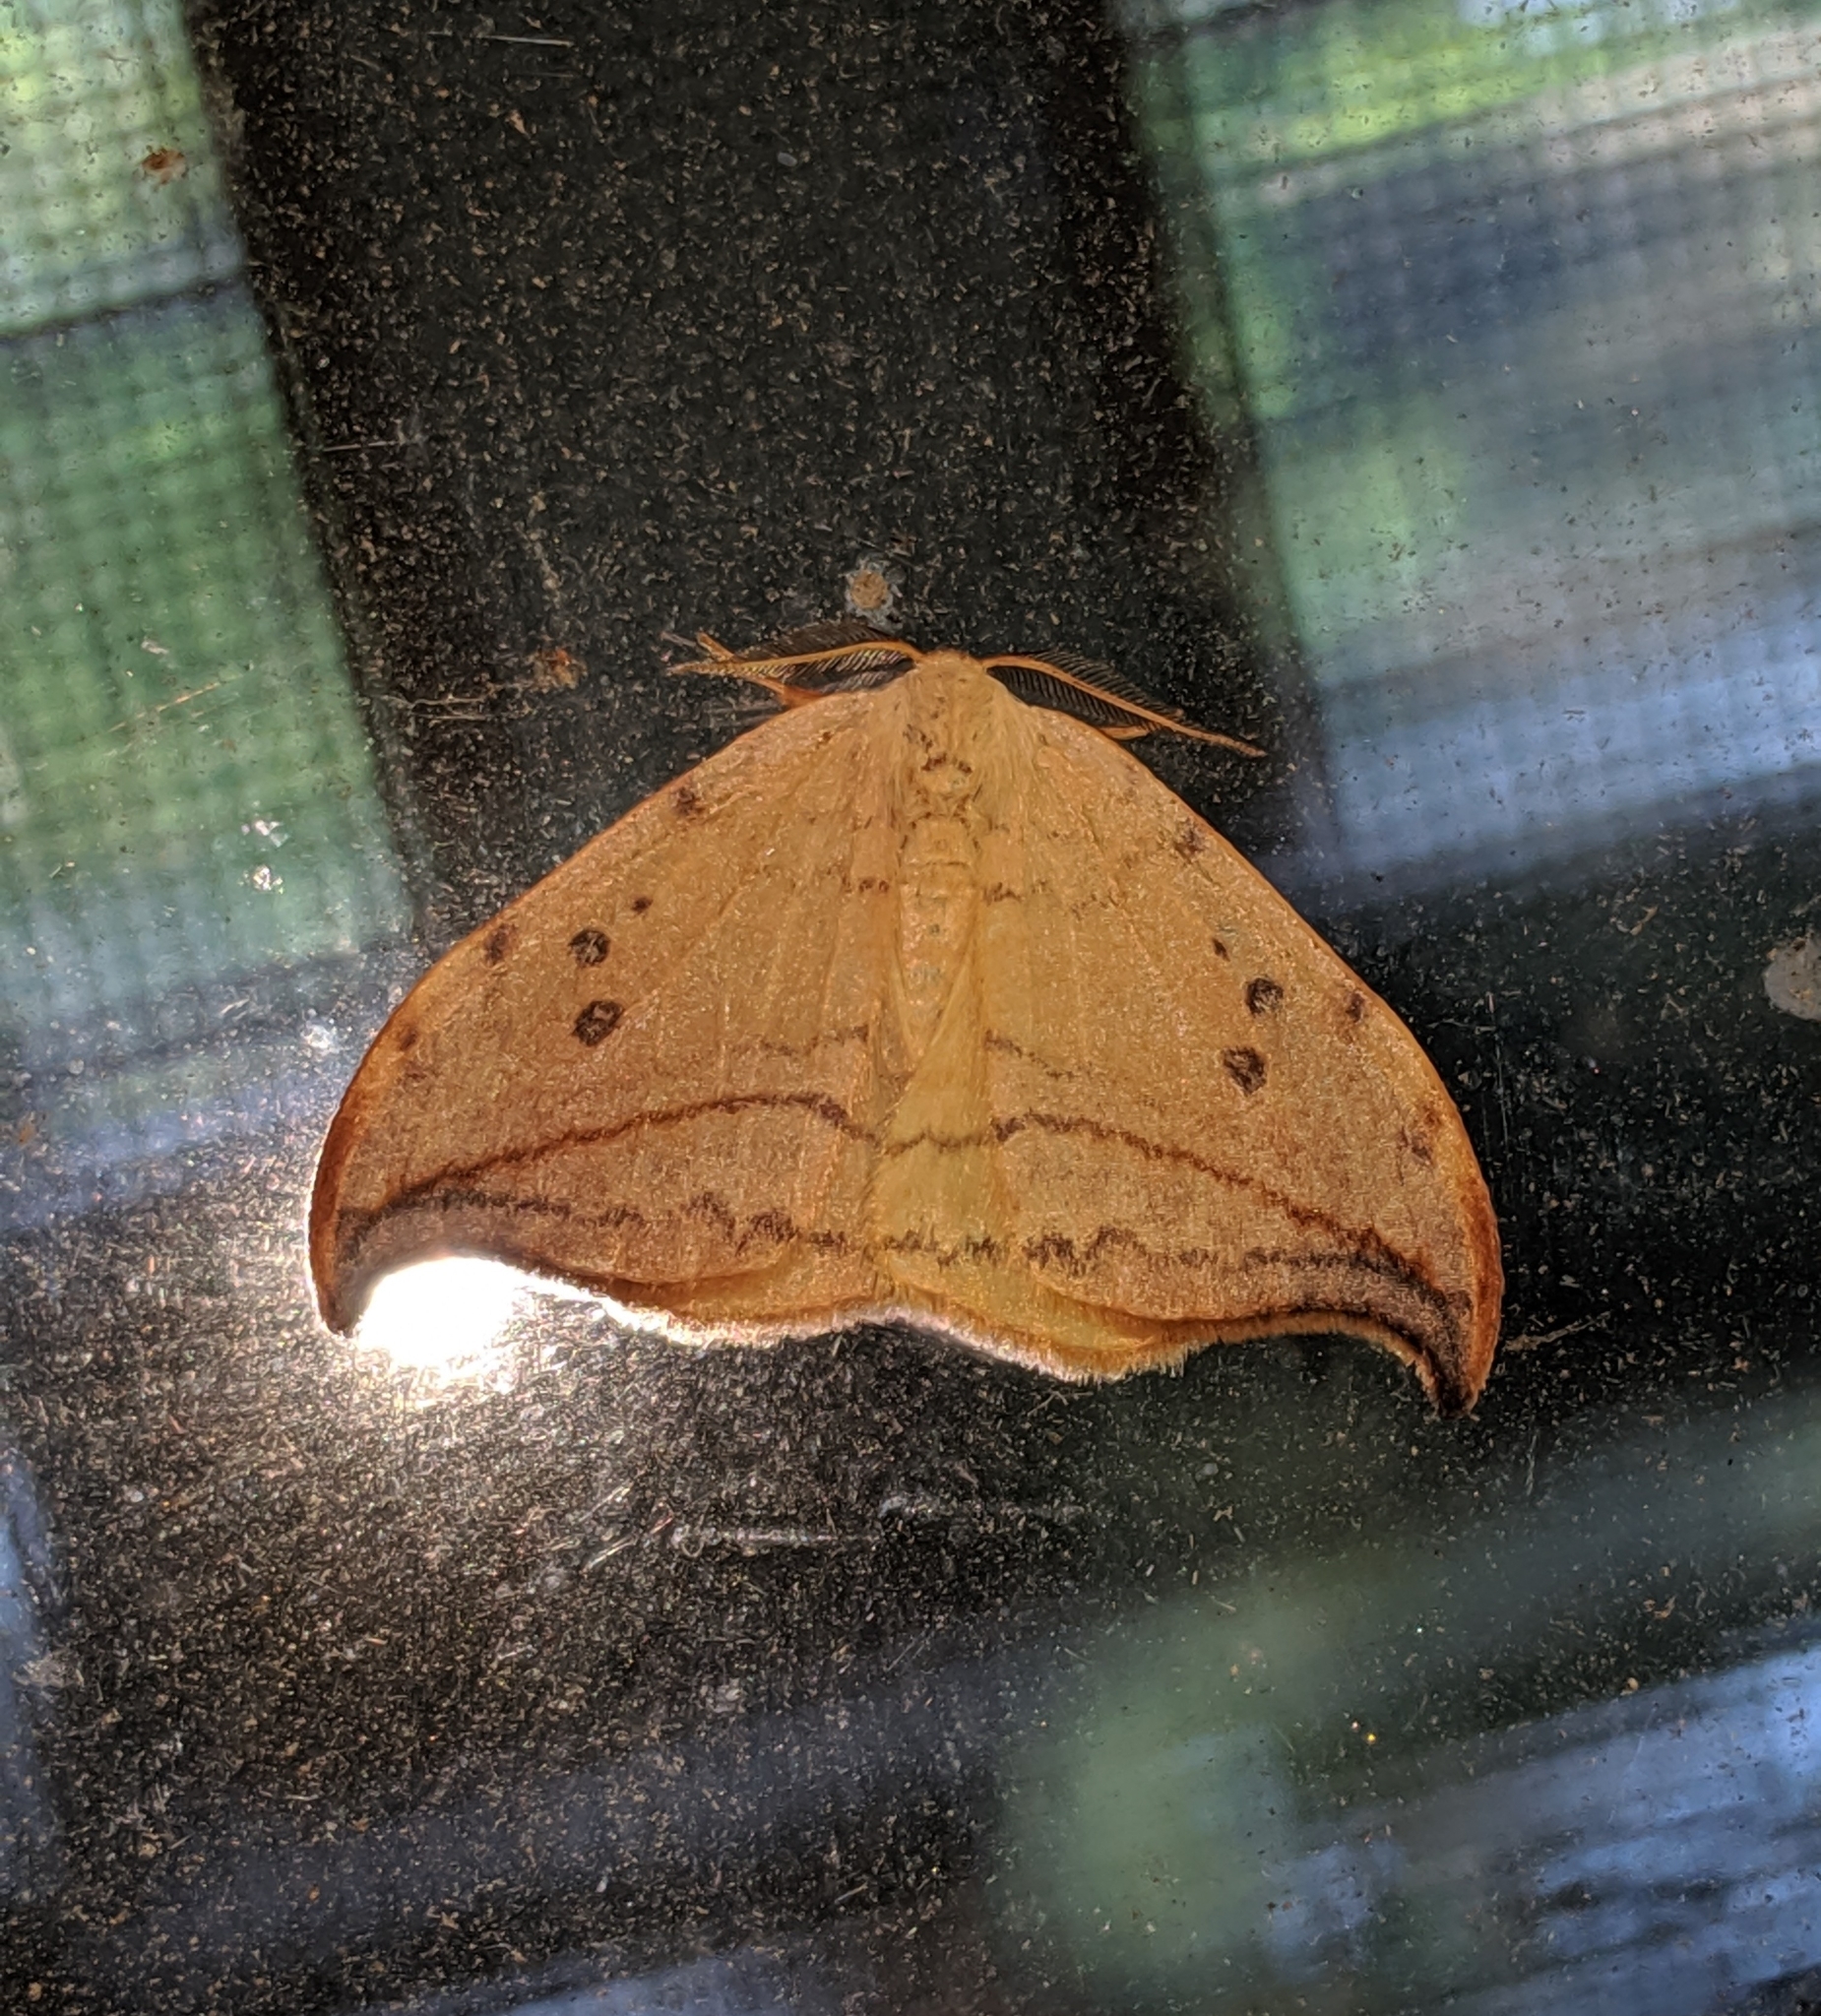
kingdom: Animalia
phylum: Arthropoda
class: Insecta
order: Lepidoptera
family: Drepanidae
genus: Drepana
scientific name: Drepana arcuata
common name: Arched hooktip moth
